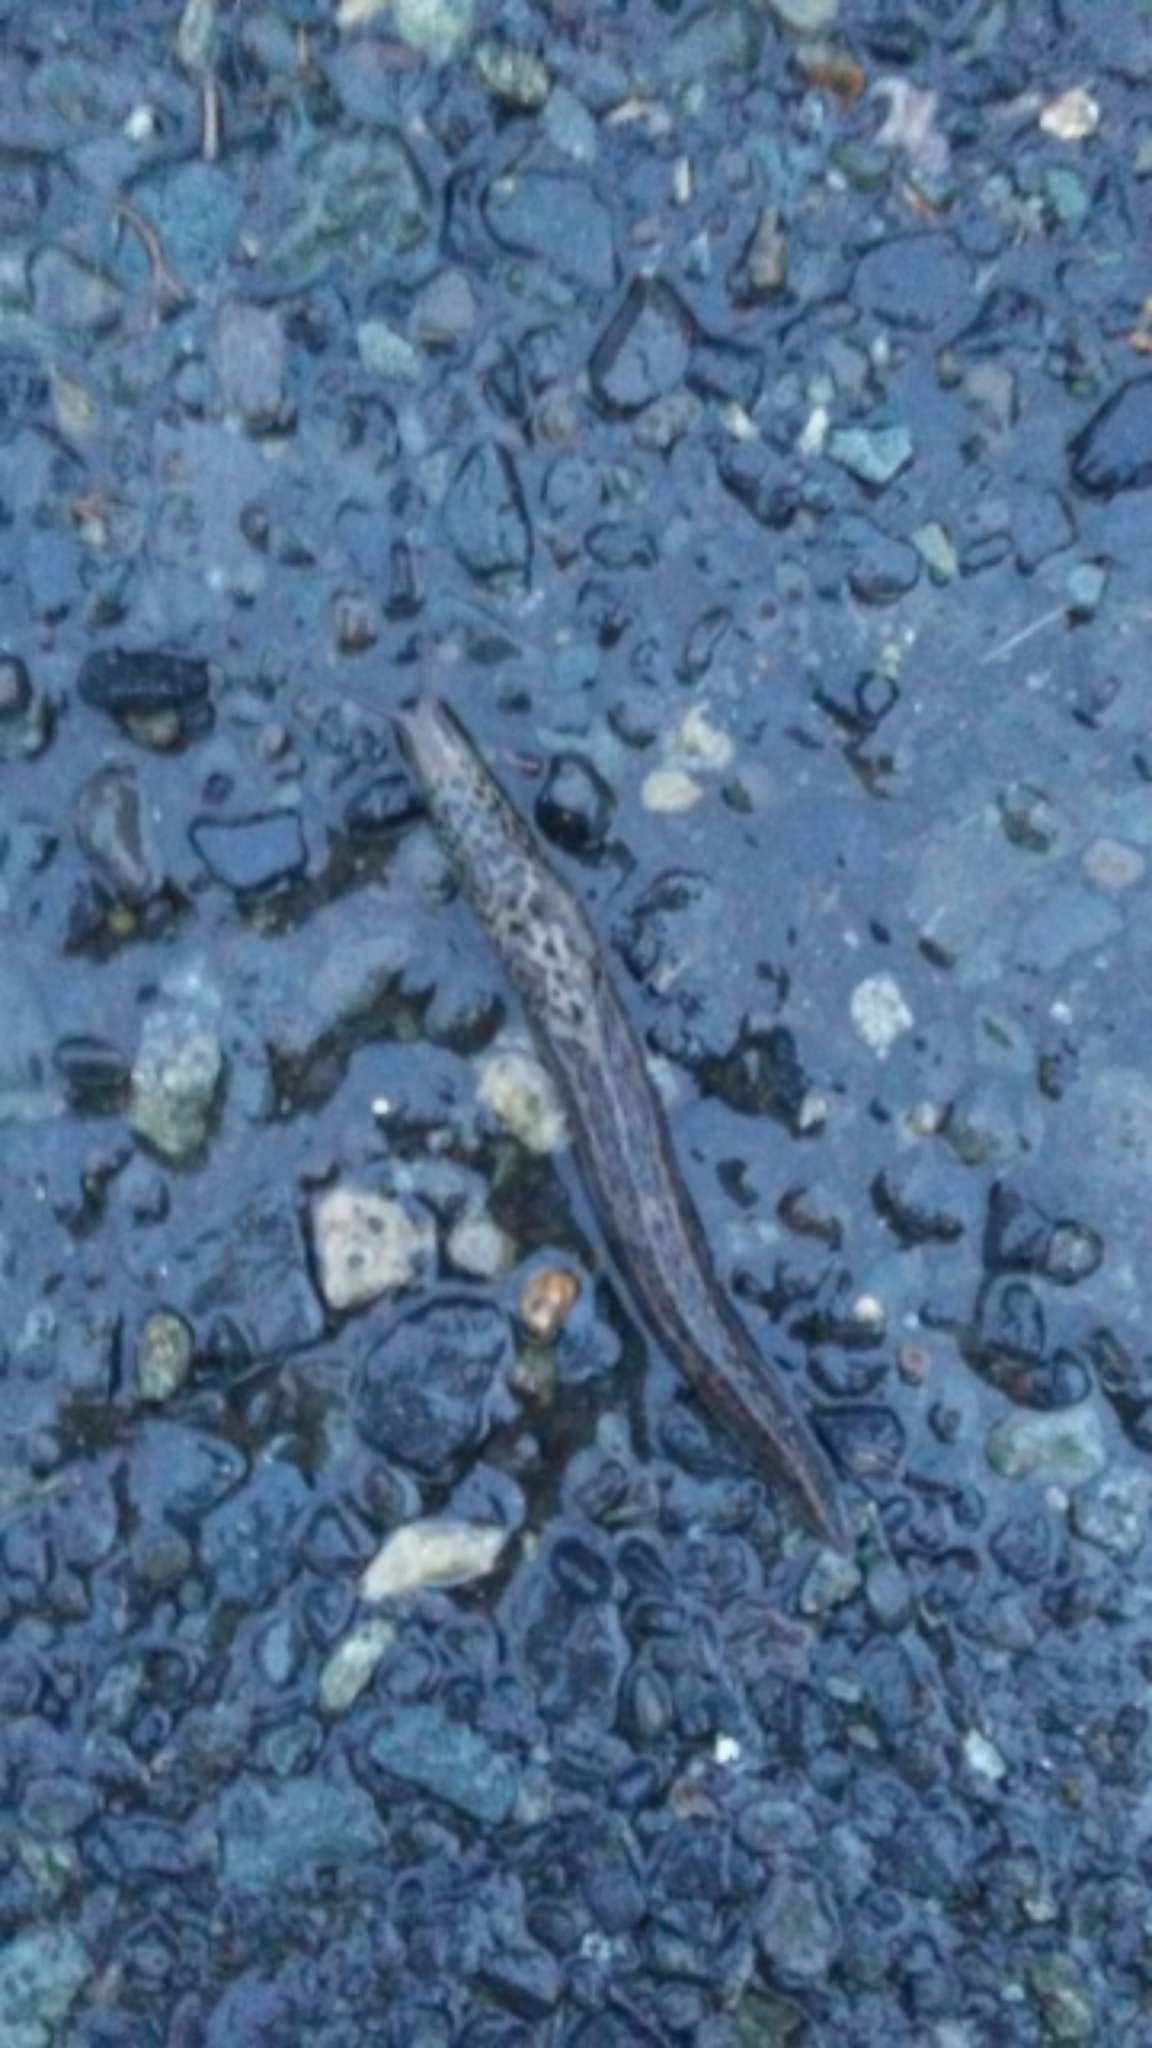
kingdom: Animalia
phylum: Mollusca
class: Gastropoda
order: Stylommatophora
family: Limacidae
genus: Limax
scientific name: Limax maximus
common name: Great grey slug
